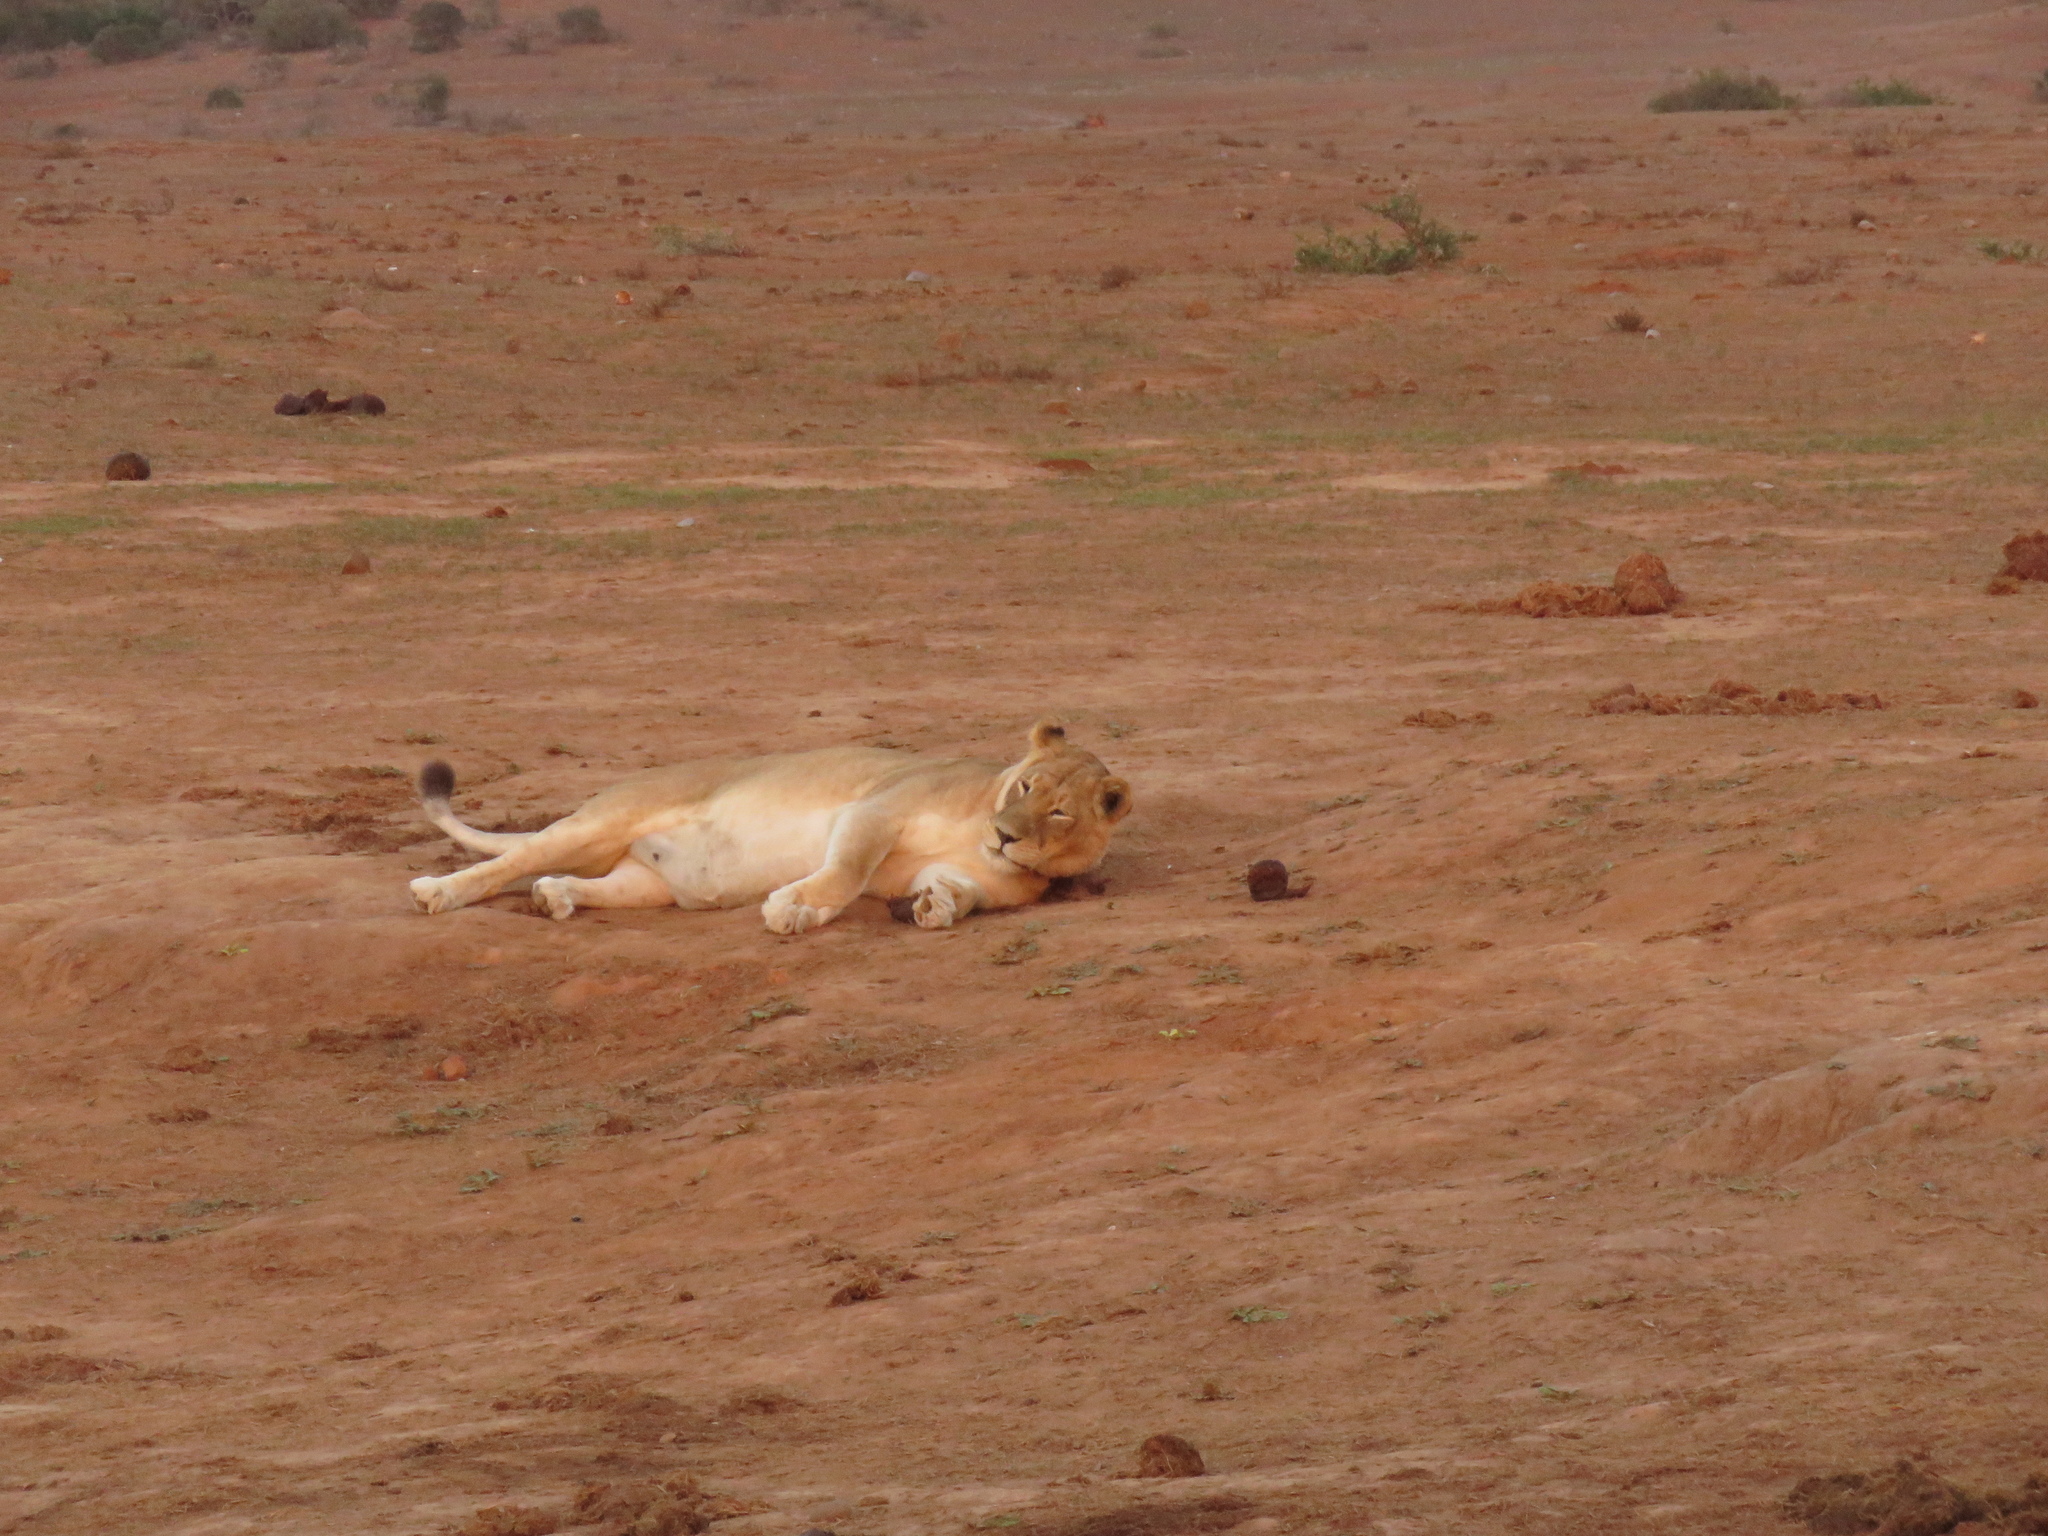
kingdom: Animalia
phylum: Chordata
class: Mammalia
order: Carnivora
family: Felidae
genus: Panthera
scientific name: Panthera leo
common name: Lion
